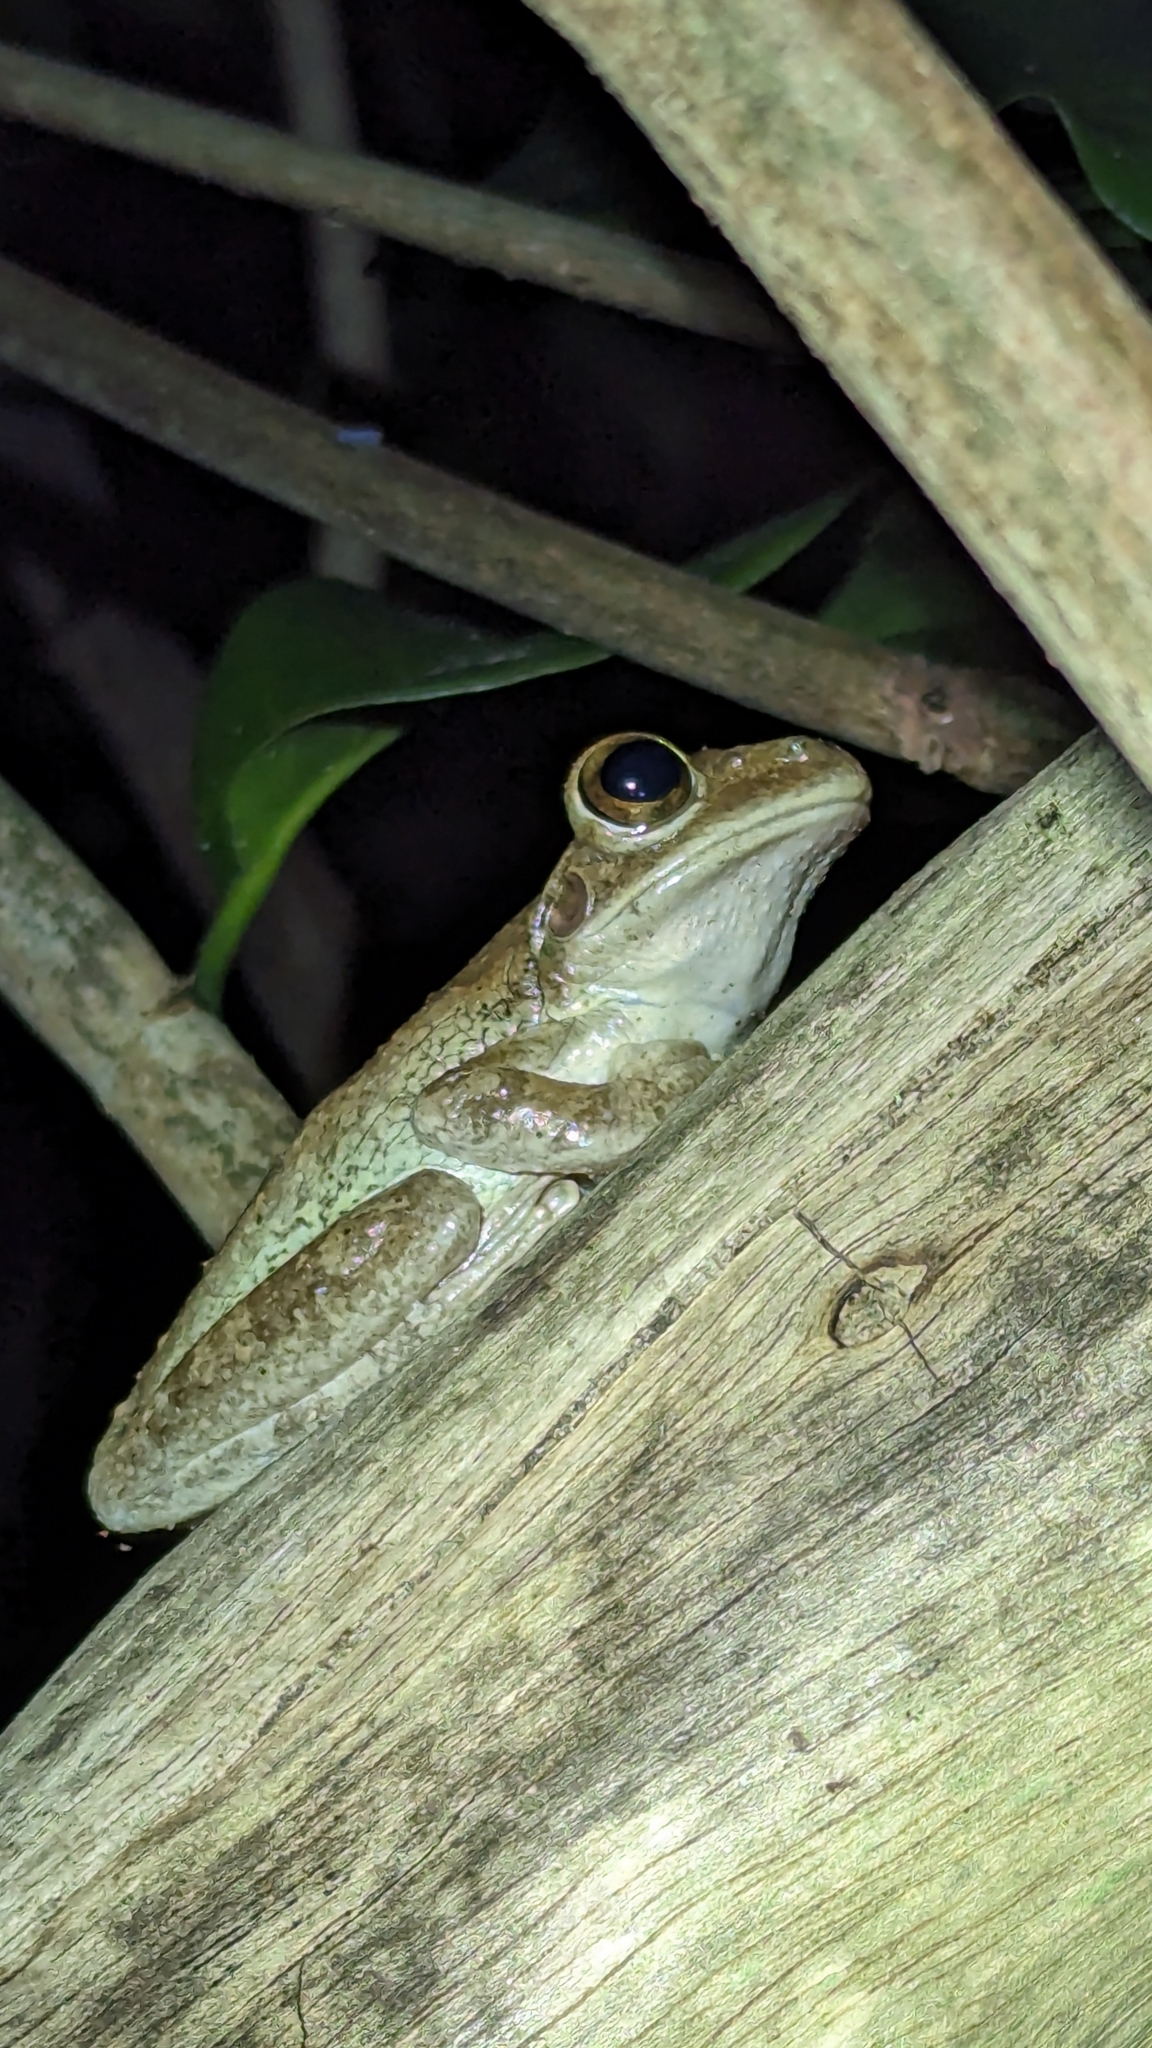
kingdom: Animalia
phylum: Chordata
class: Amphibia
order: Anura
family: Hylidae
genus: Osteopilus
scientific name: Osteopilus septentrionalis
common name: Cuban treefrog
